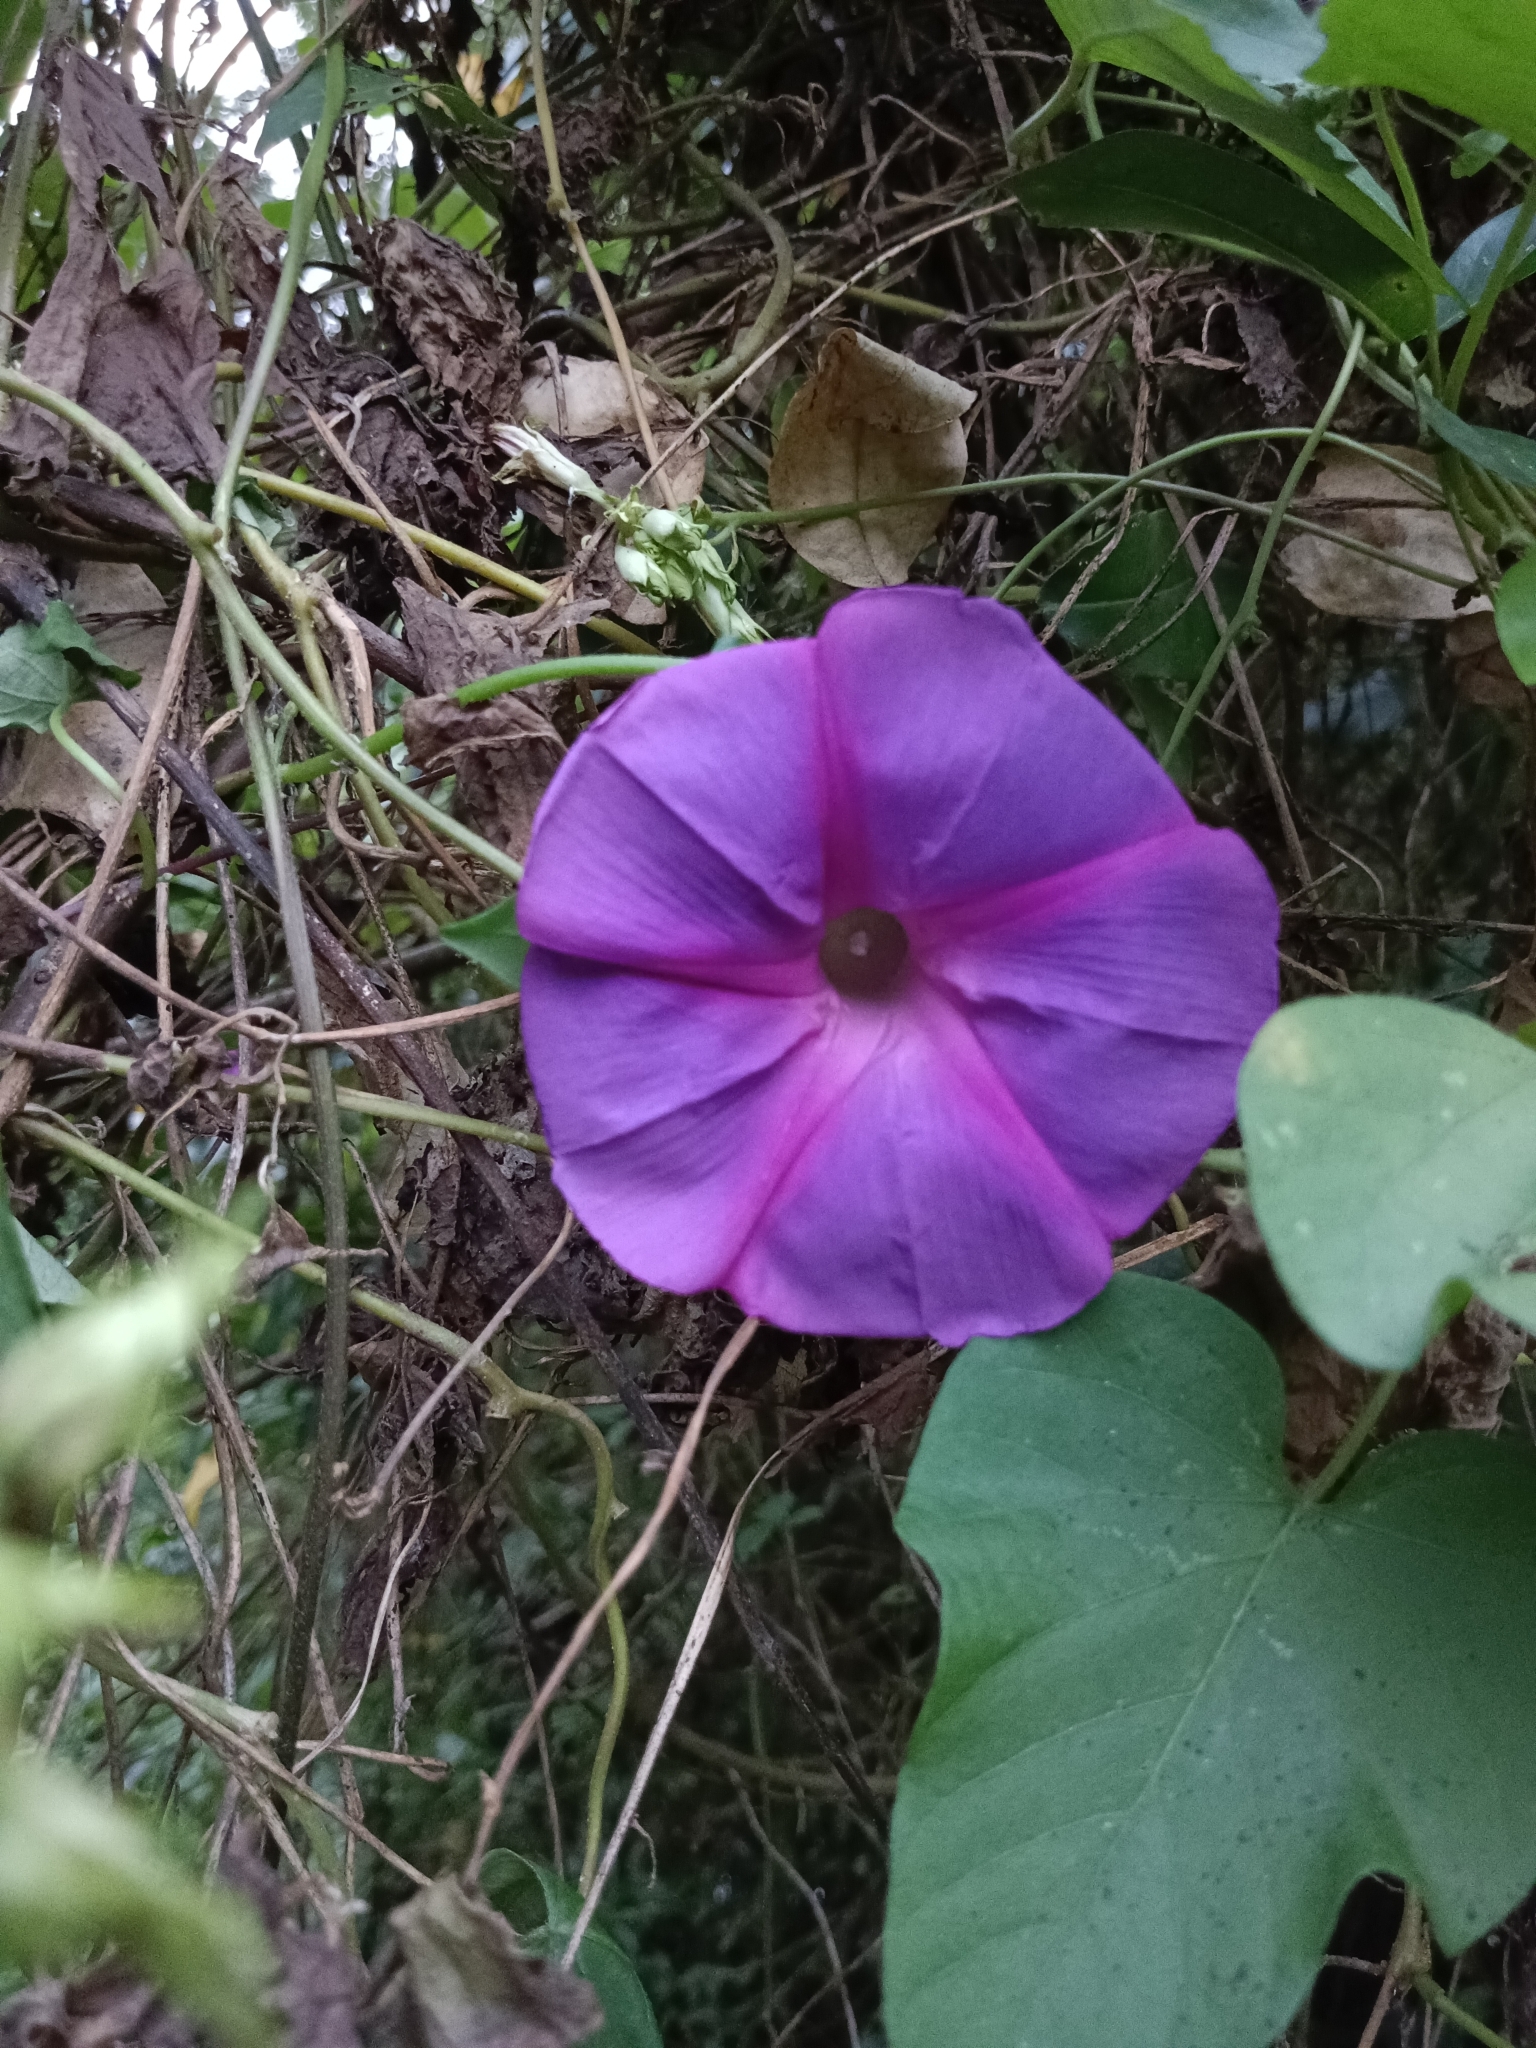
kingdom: Plantae
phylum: Tracheophyta
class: Magnoliopsida
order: Solanales
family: Convolvulaceae
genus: Ipomoea
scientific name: Ipomoea indica
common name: Blue dawnflower
